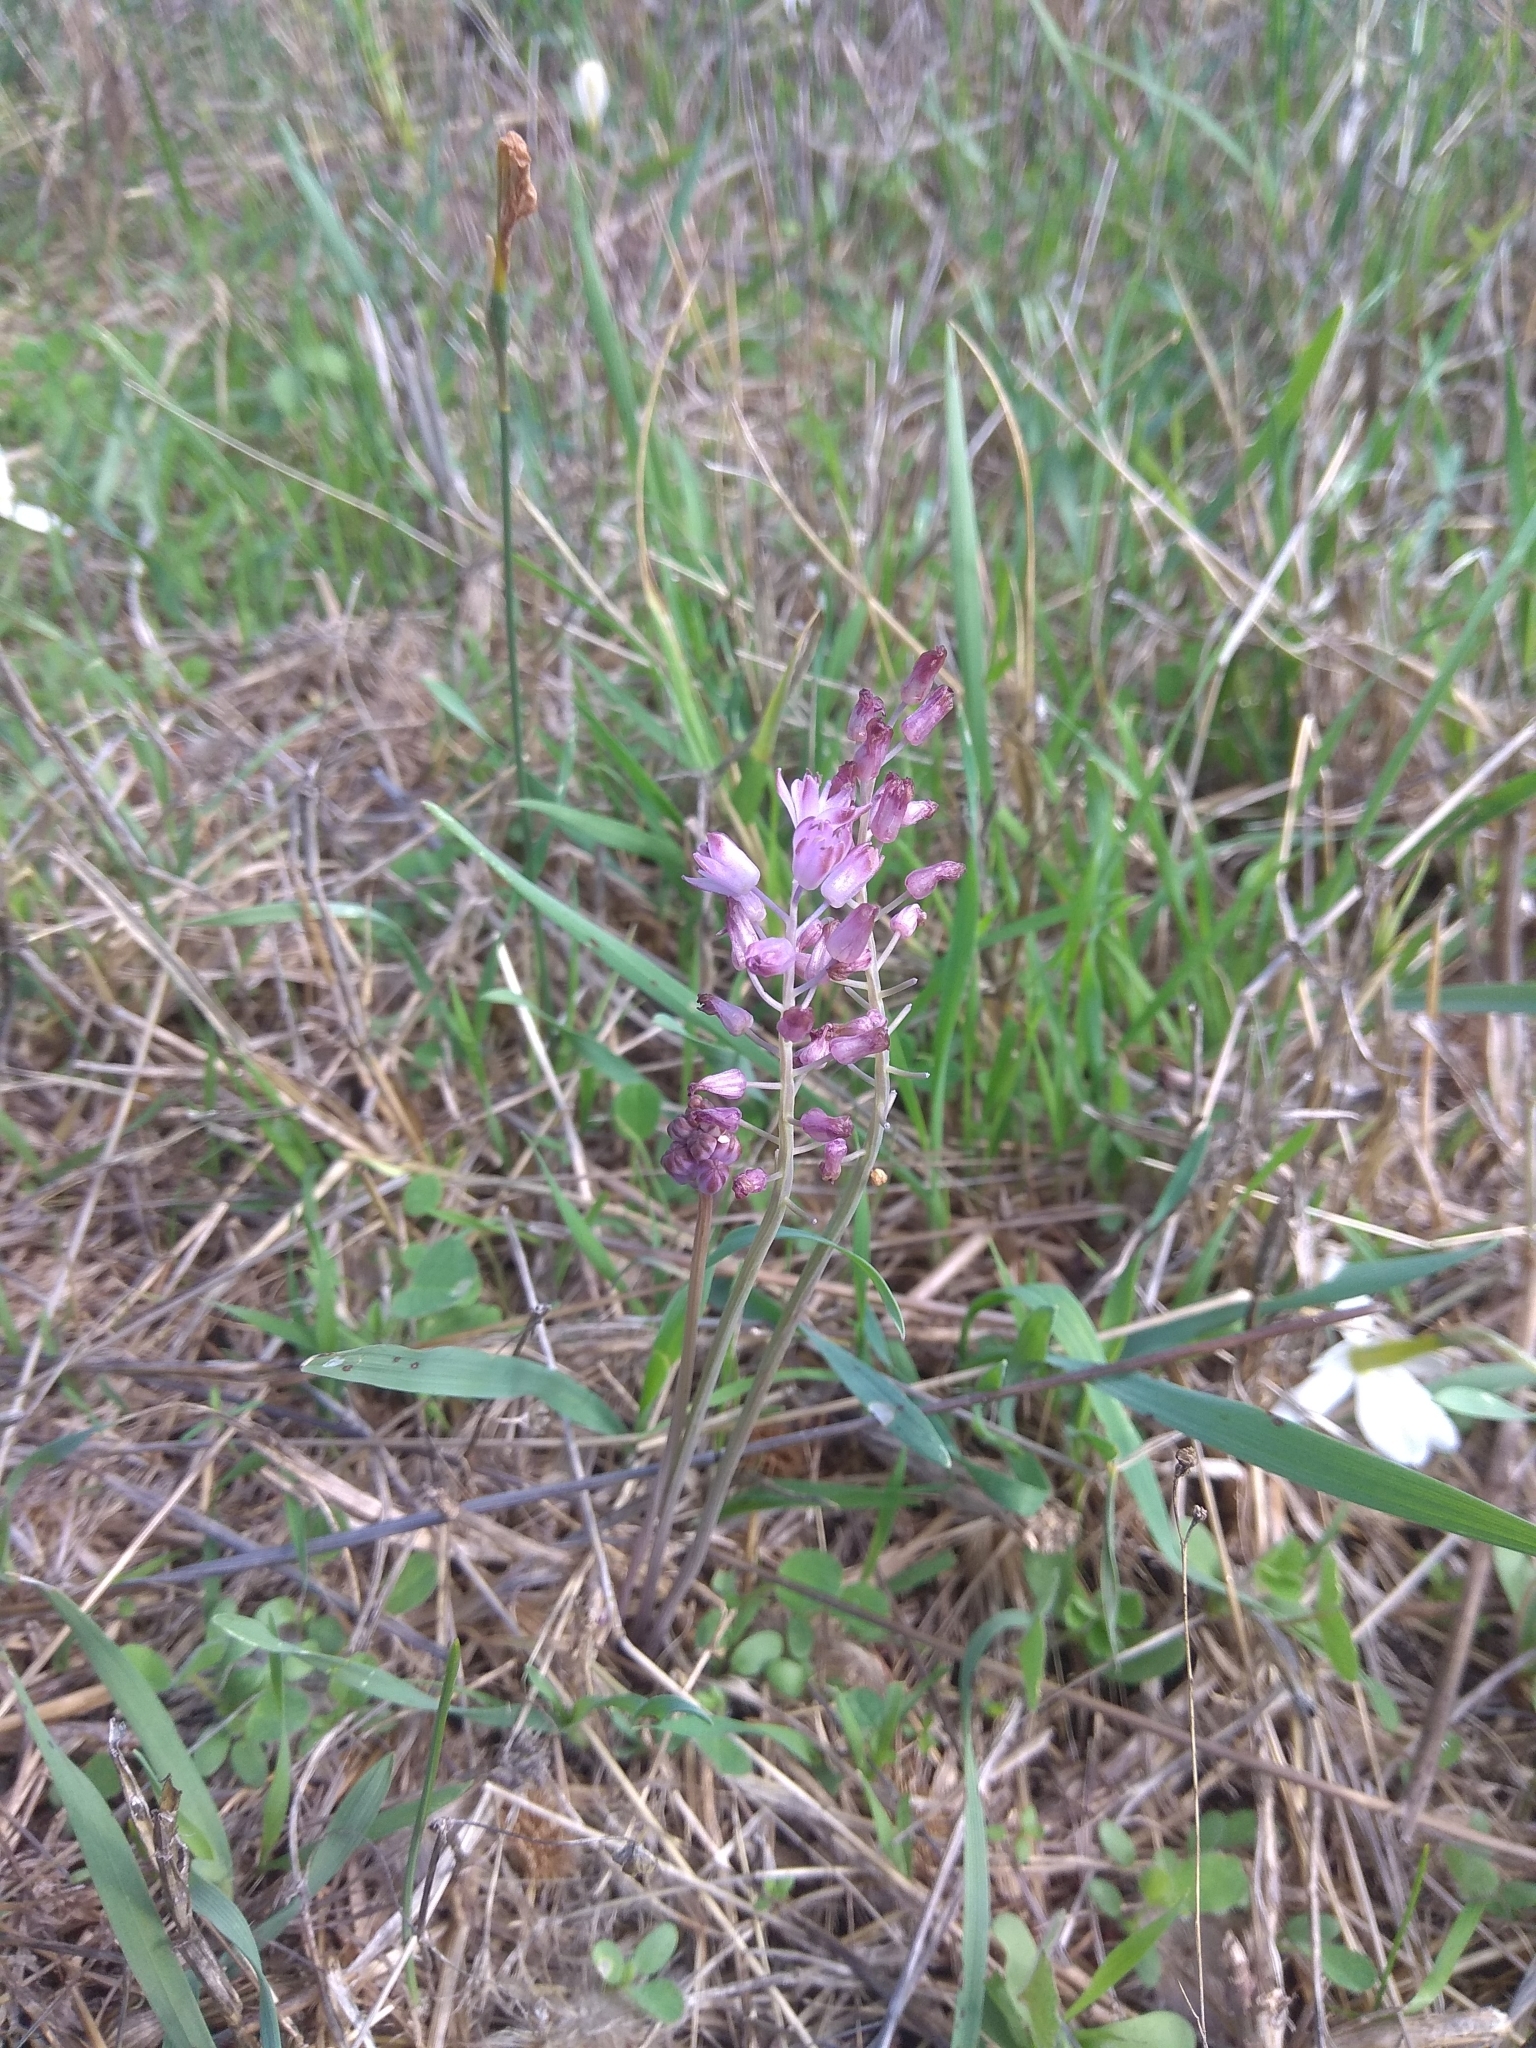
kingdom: Plantae
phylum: Tracheophyta
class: Liliopsida
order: Asparagales
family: Asparagaceae
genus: Prospero
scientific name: Prospero autumnale
